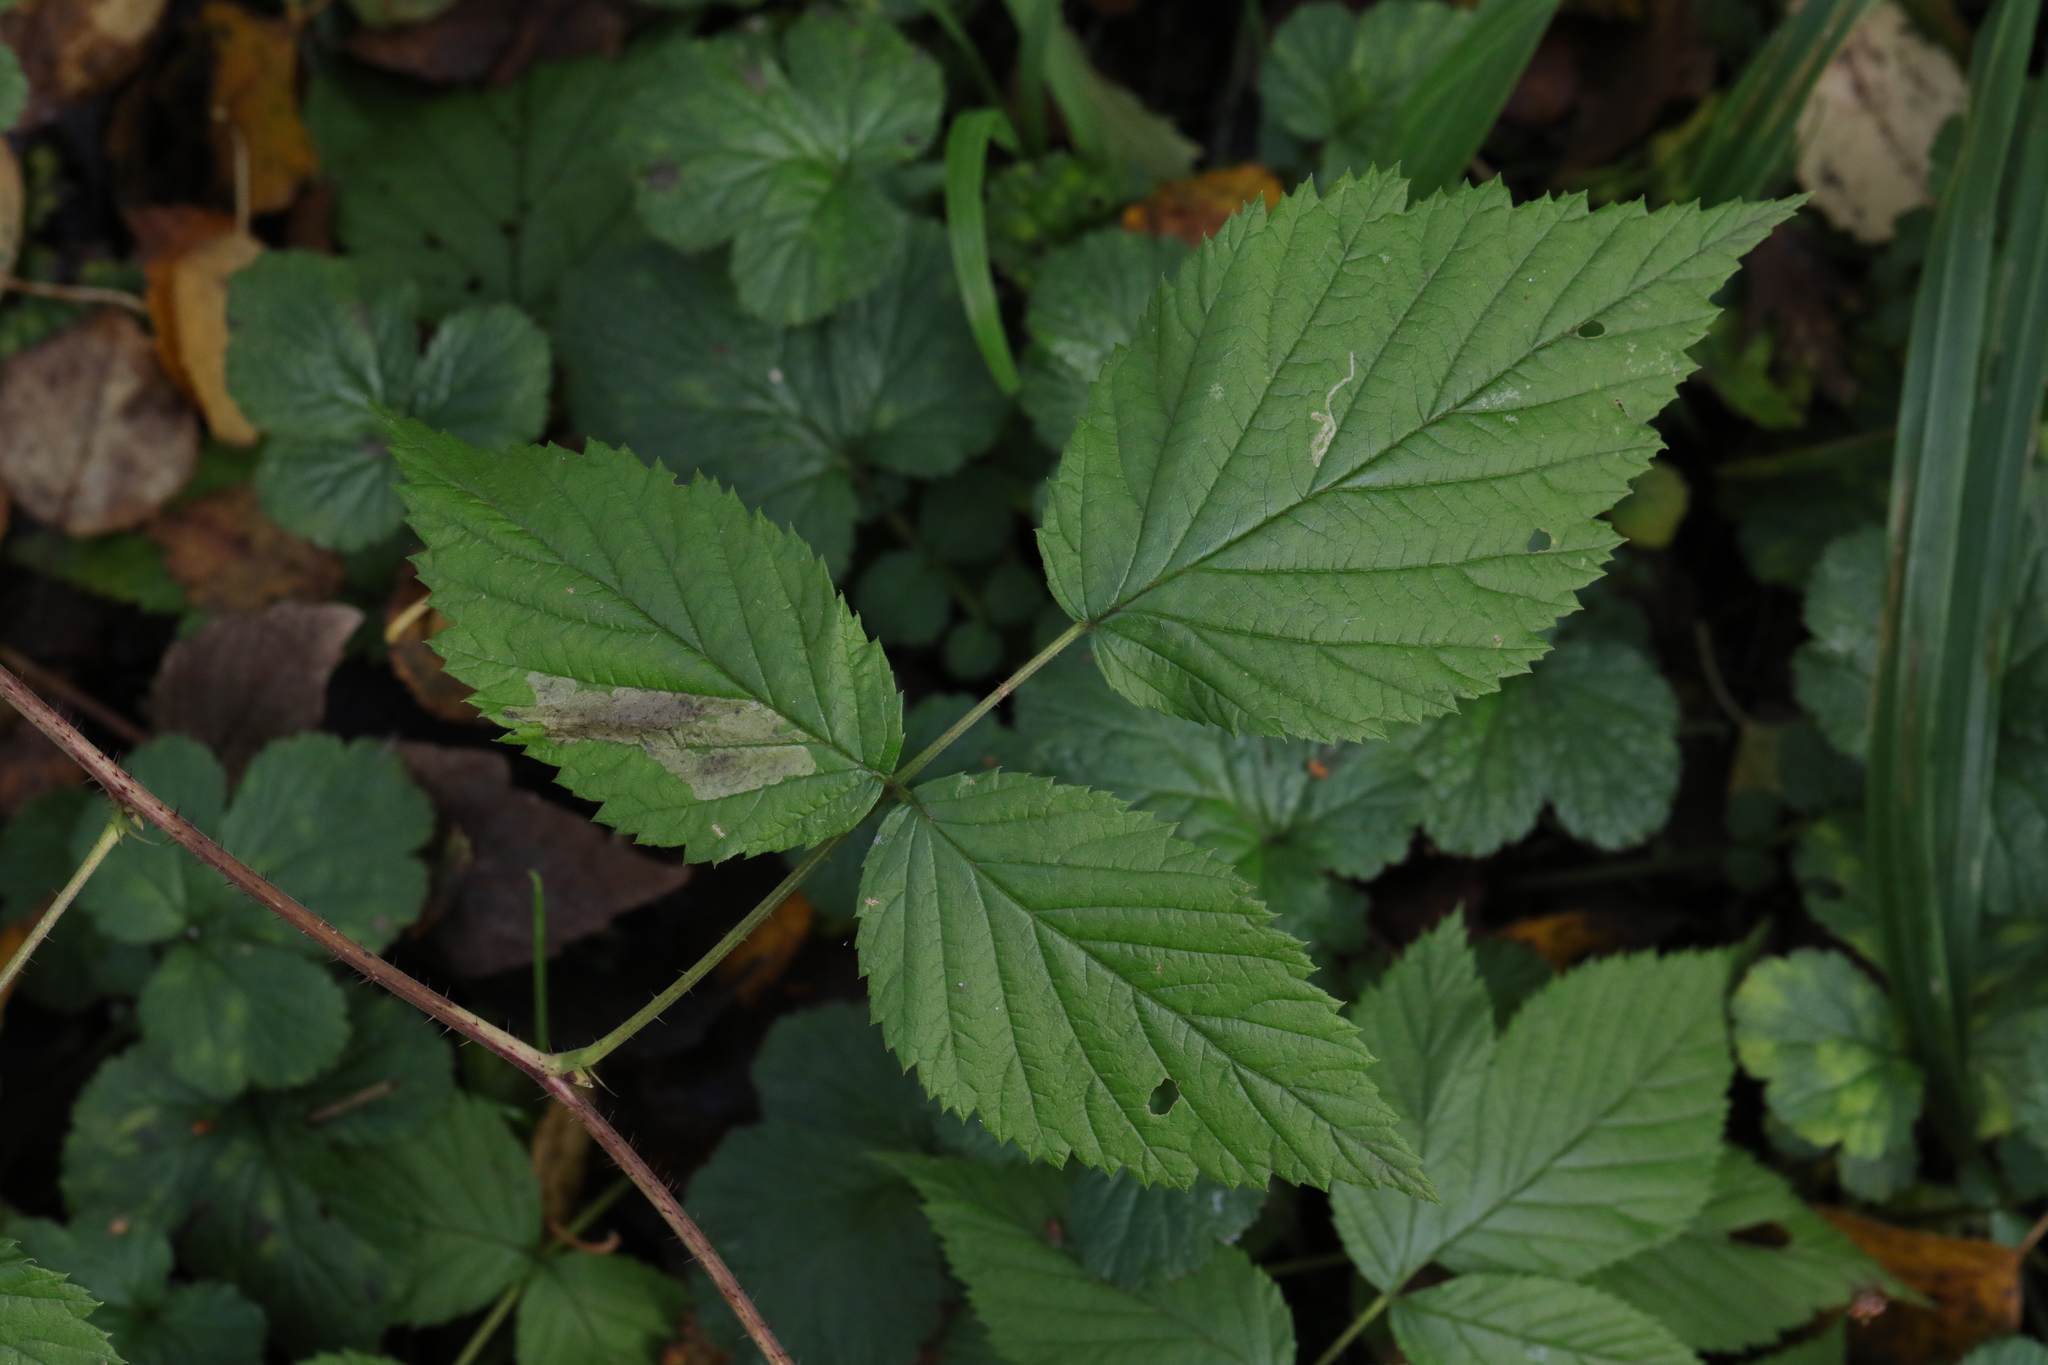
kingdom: Plantae
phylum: Tracheophyta
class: Magnoliopsida
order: Rosales
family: Rosaceae
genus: Rubus
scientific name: Rubus idaeus
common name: Raspberry
